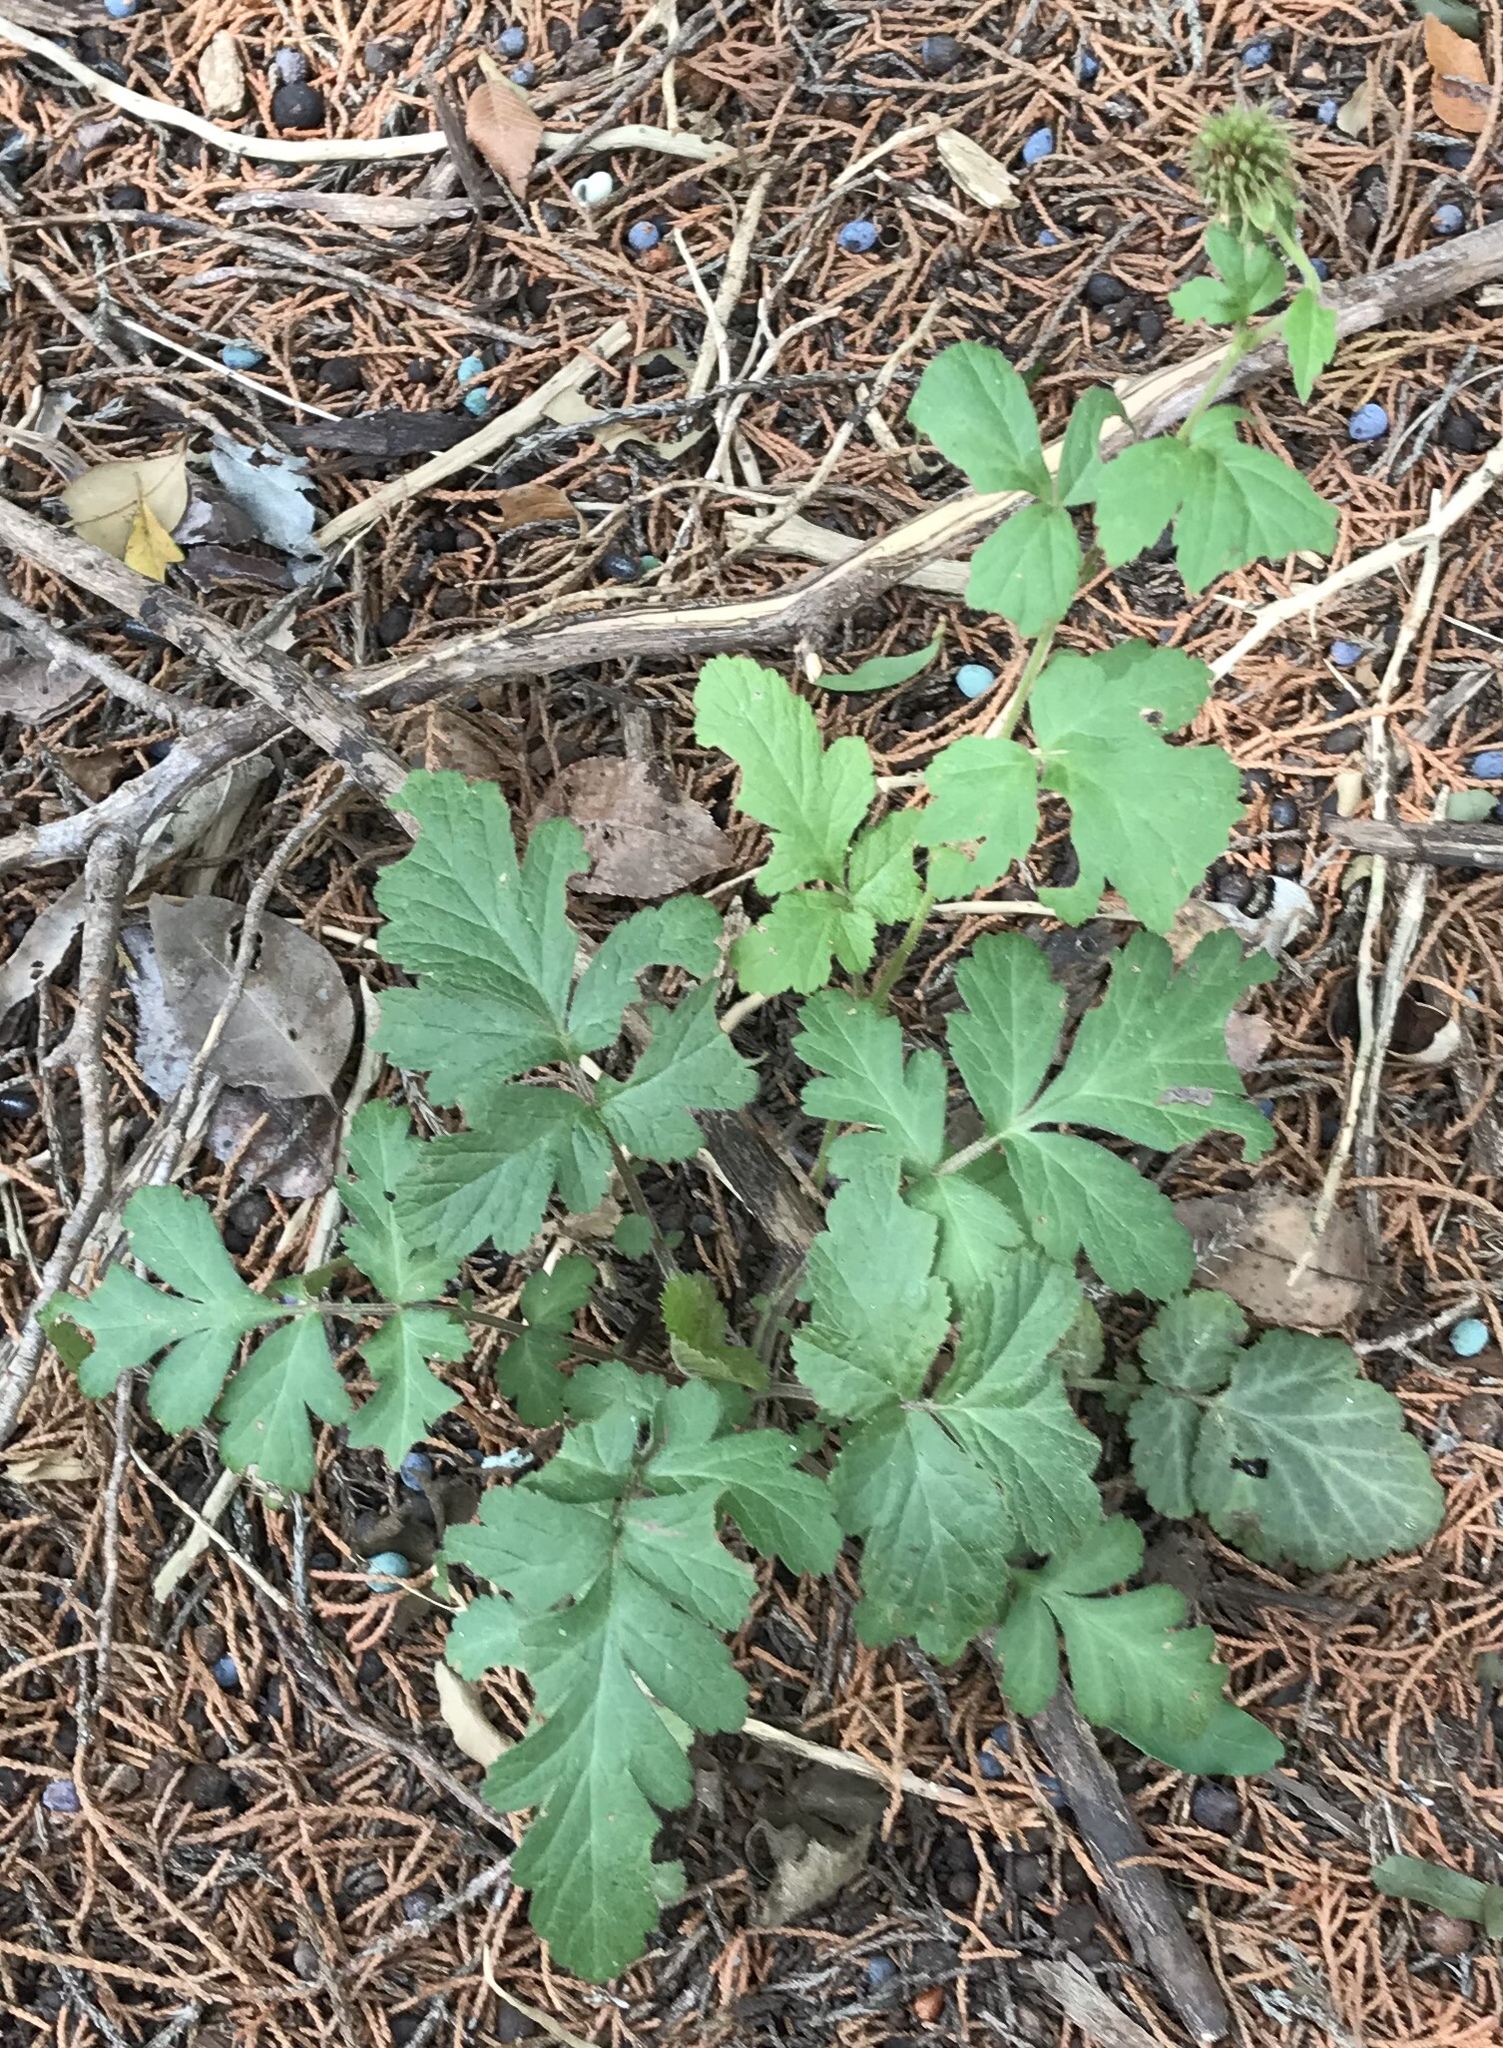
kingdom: Plantae
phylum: Tracheophyta
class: Magnoliopsida
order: Rosales
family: Rosaceae
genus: Geum
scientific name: Geum canadense
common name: White avens
